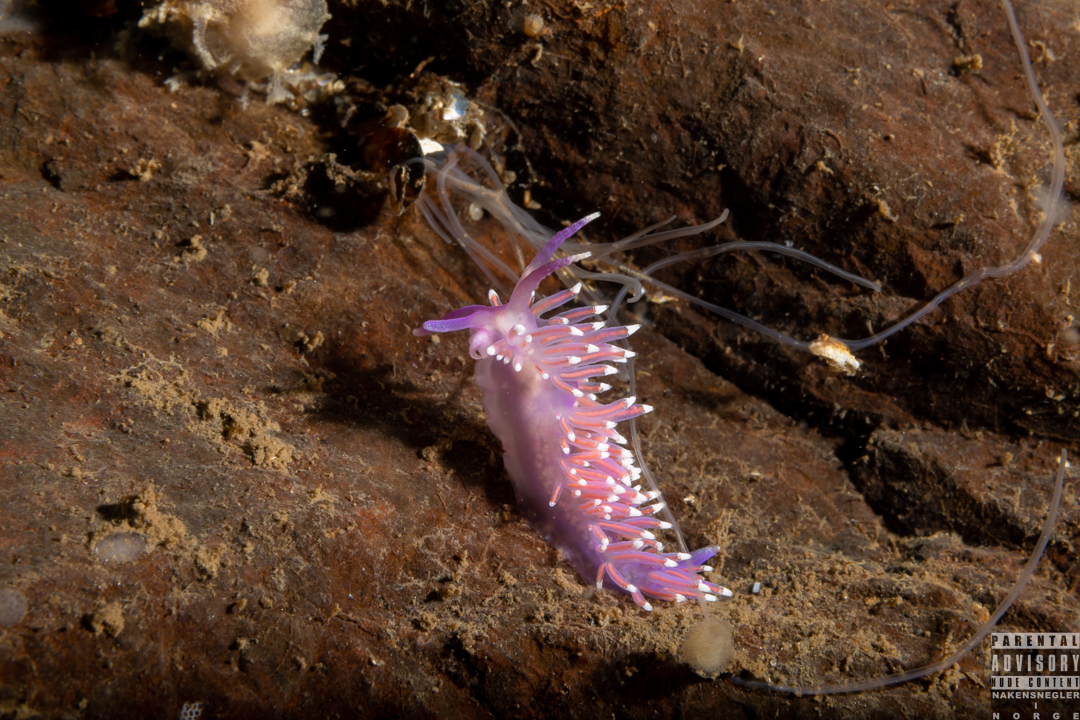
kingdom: Animalia
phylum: Mollusca
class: Gastropoda
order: Nudibranchia
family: Flabellinidae
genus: Edmundsella
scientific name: Edmundsella pedata
